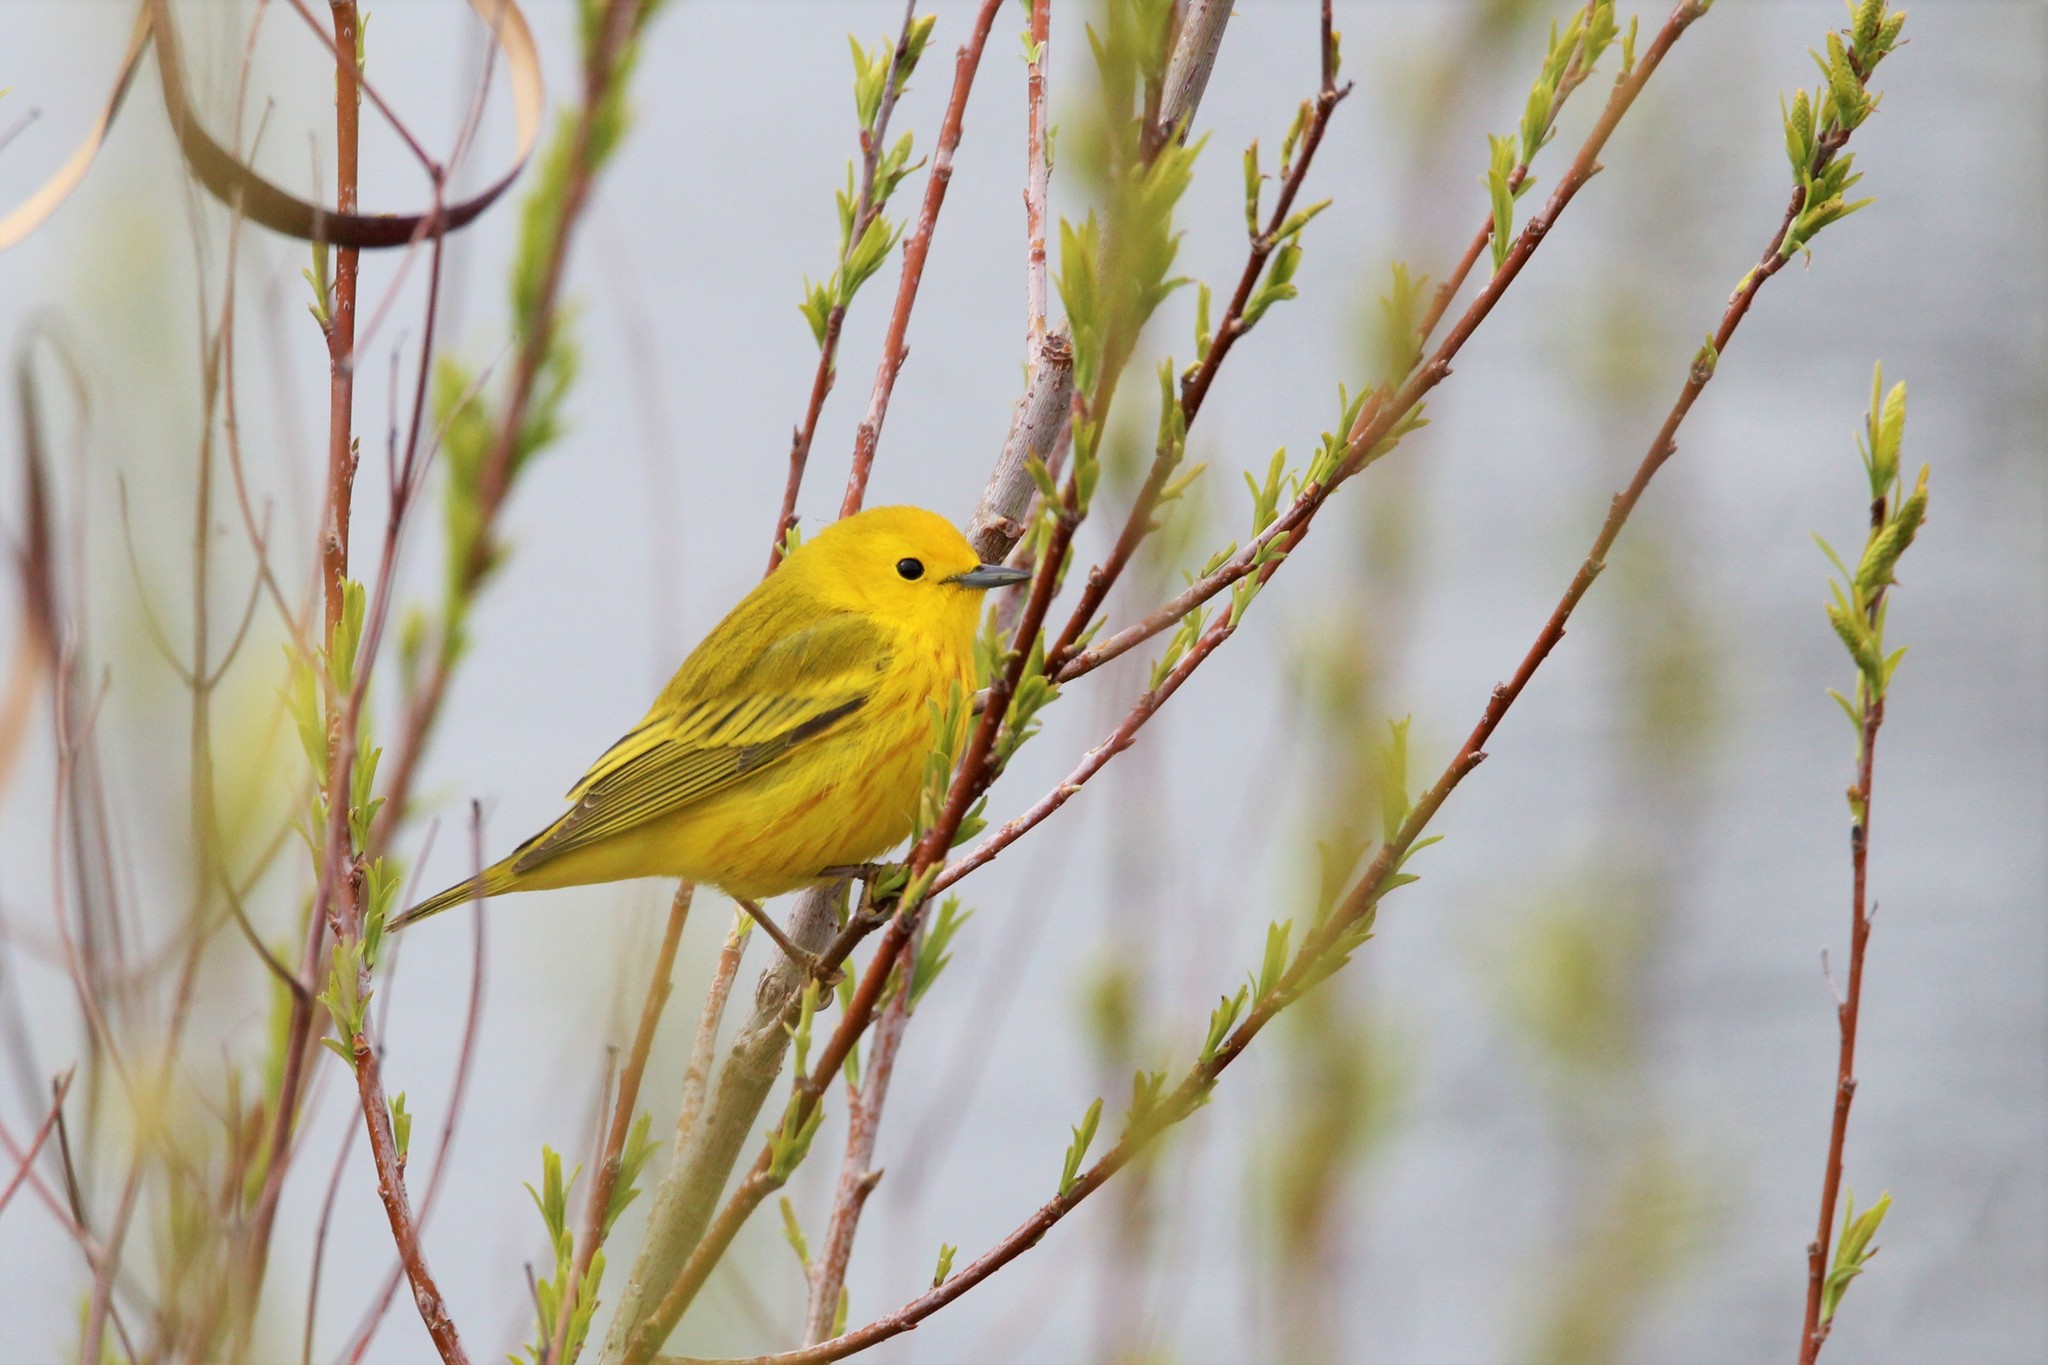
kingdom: Animalia
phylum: Chordata
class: Aves
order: Passeriformes
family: Parulidae
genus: Setophaga
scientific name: Setophaga petechia
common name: Yellow warbler
